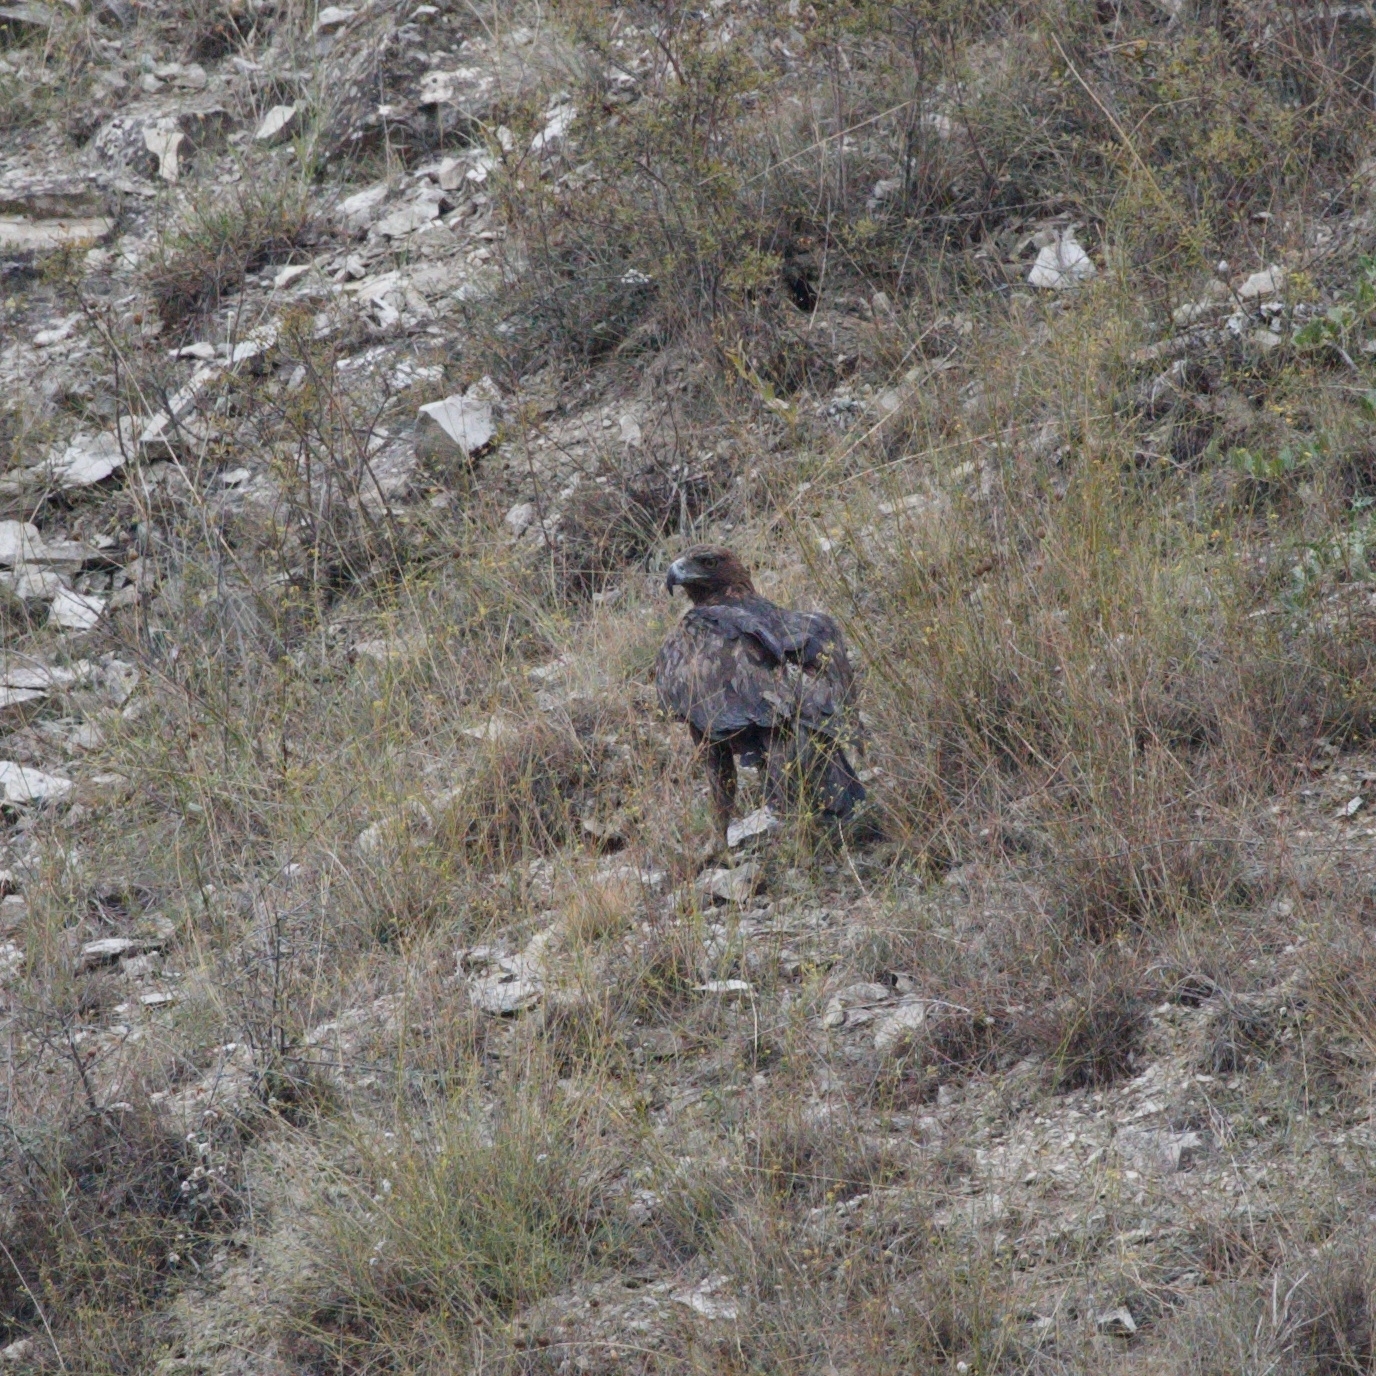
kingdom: Animalia
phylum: Chordata
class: Aves
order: Accipitriformes
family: Accipitridae
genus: Aquila
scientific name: Aquila chrysaetos
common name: Golden eagle
